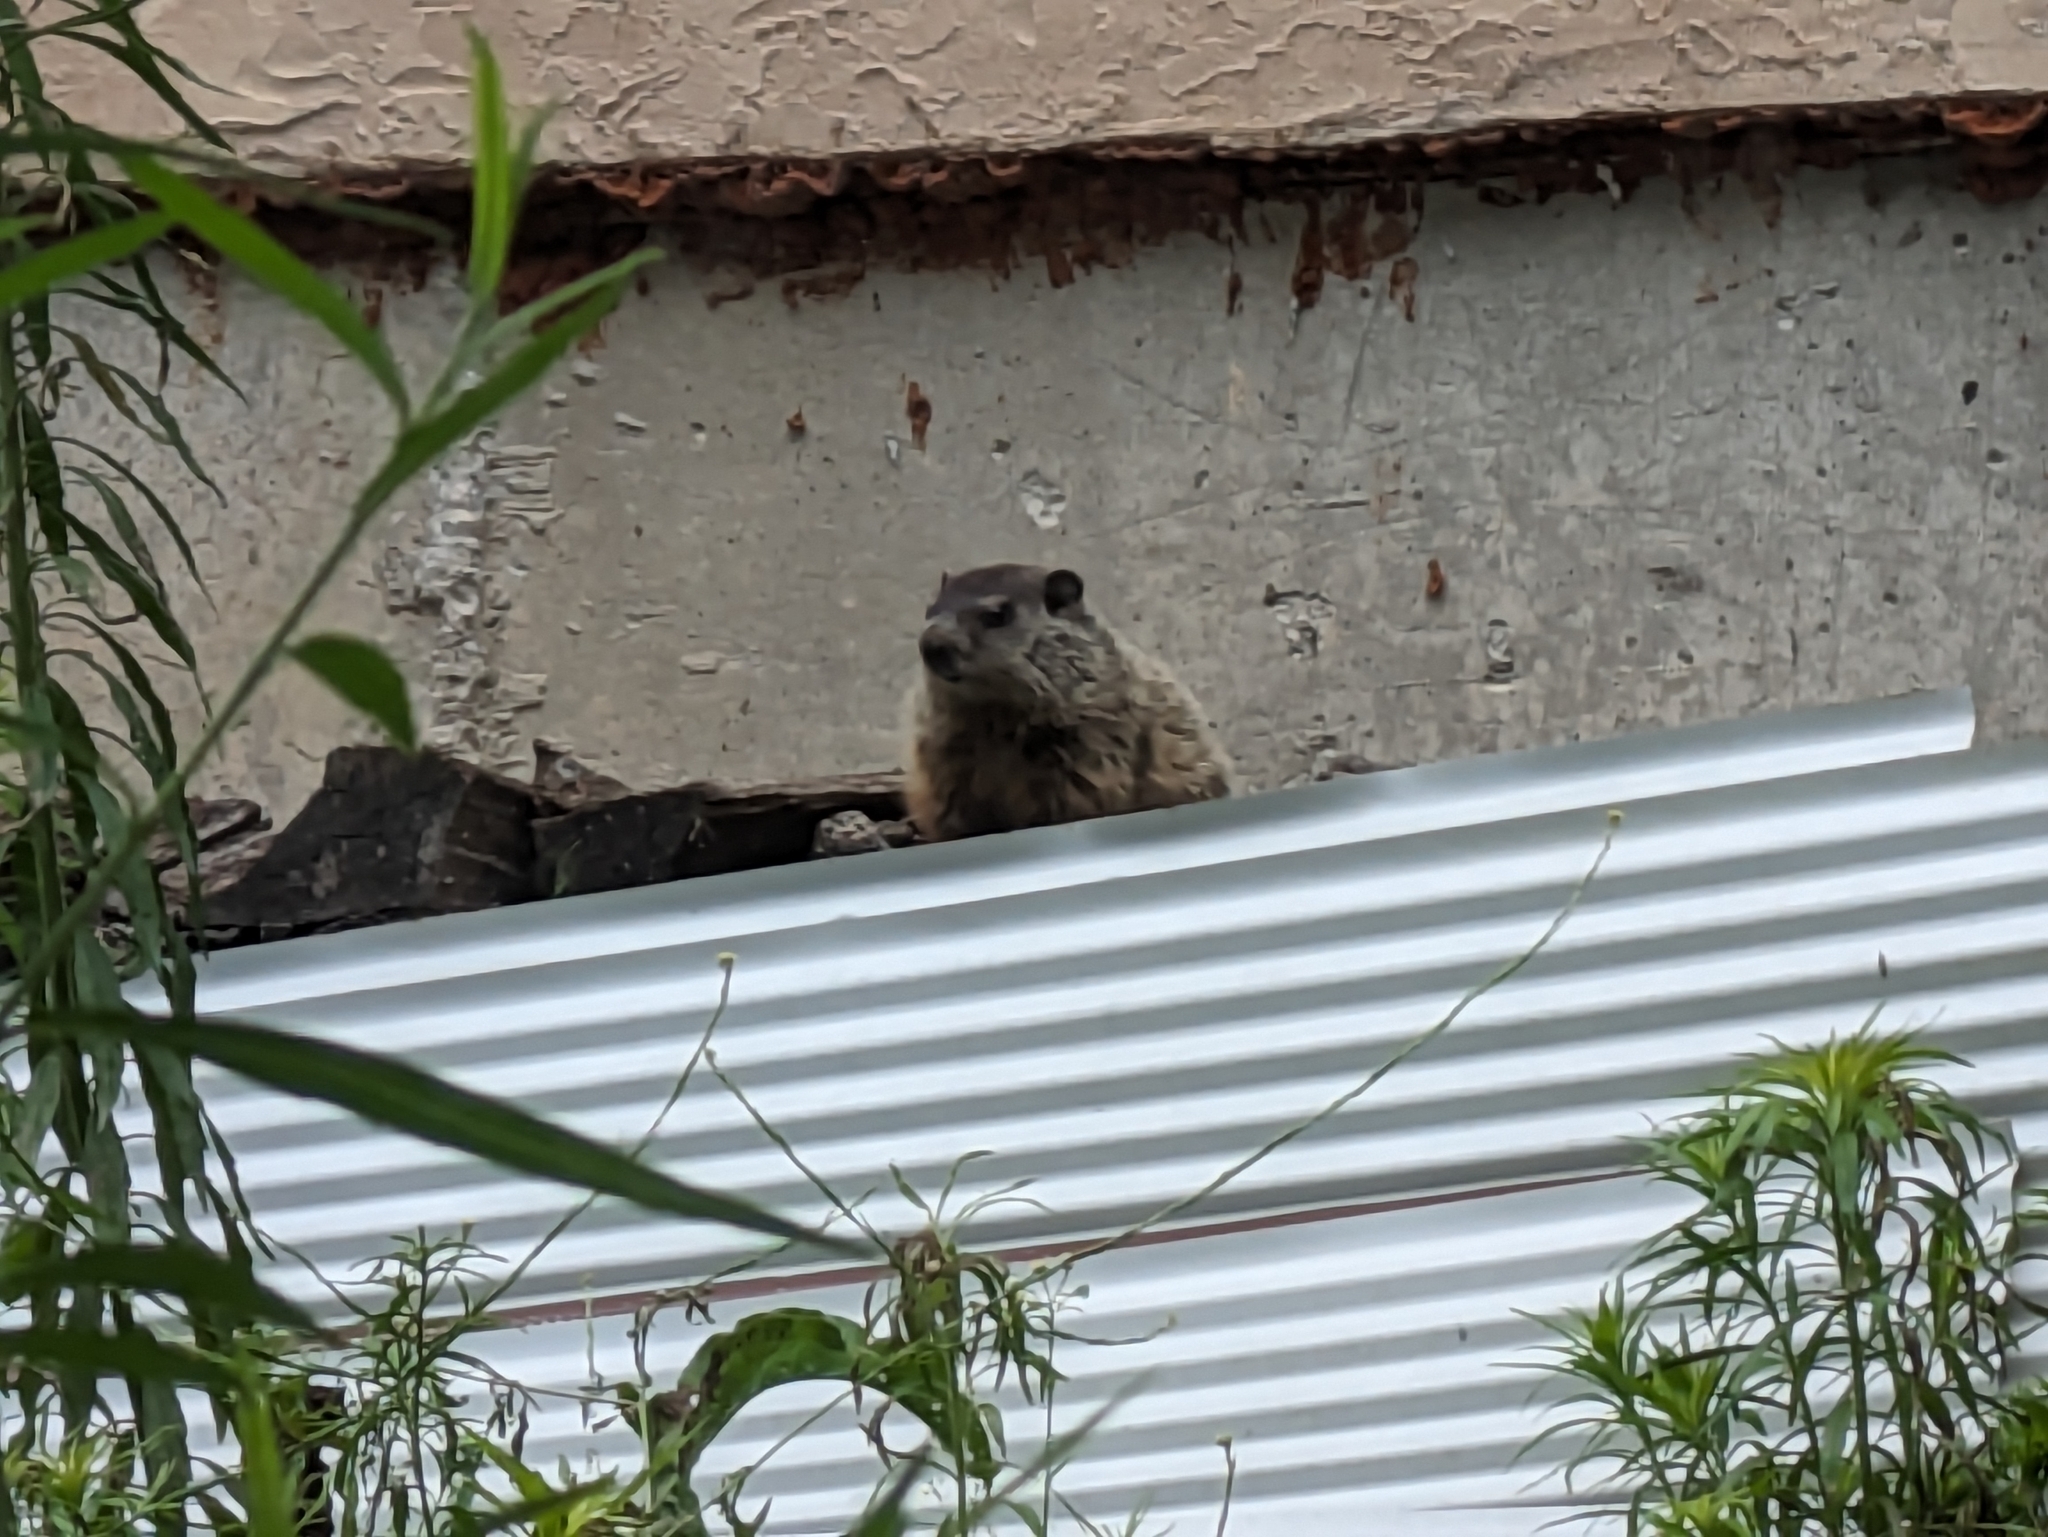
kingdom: Animalia
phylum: Chordata
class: Mammalia
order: Rodentia
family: Sciuridae
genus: Marmota
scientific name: Marmota monax
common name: Groundhog
